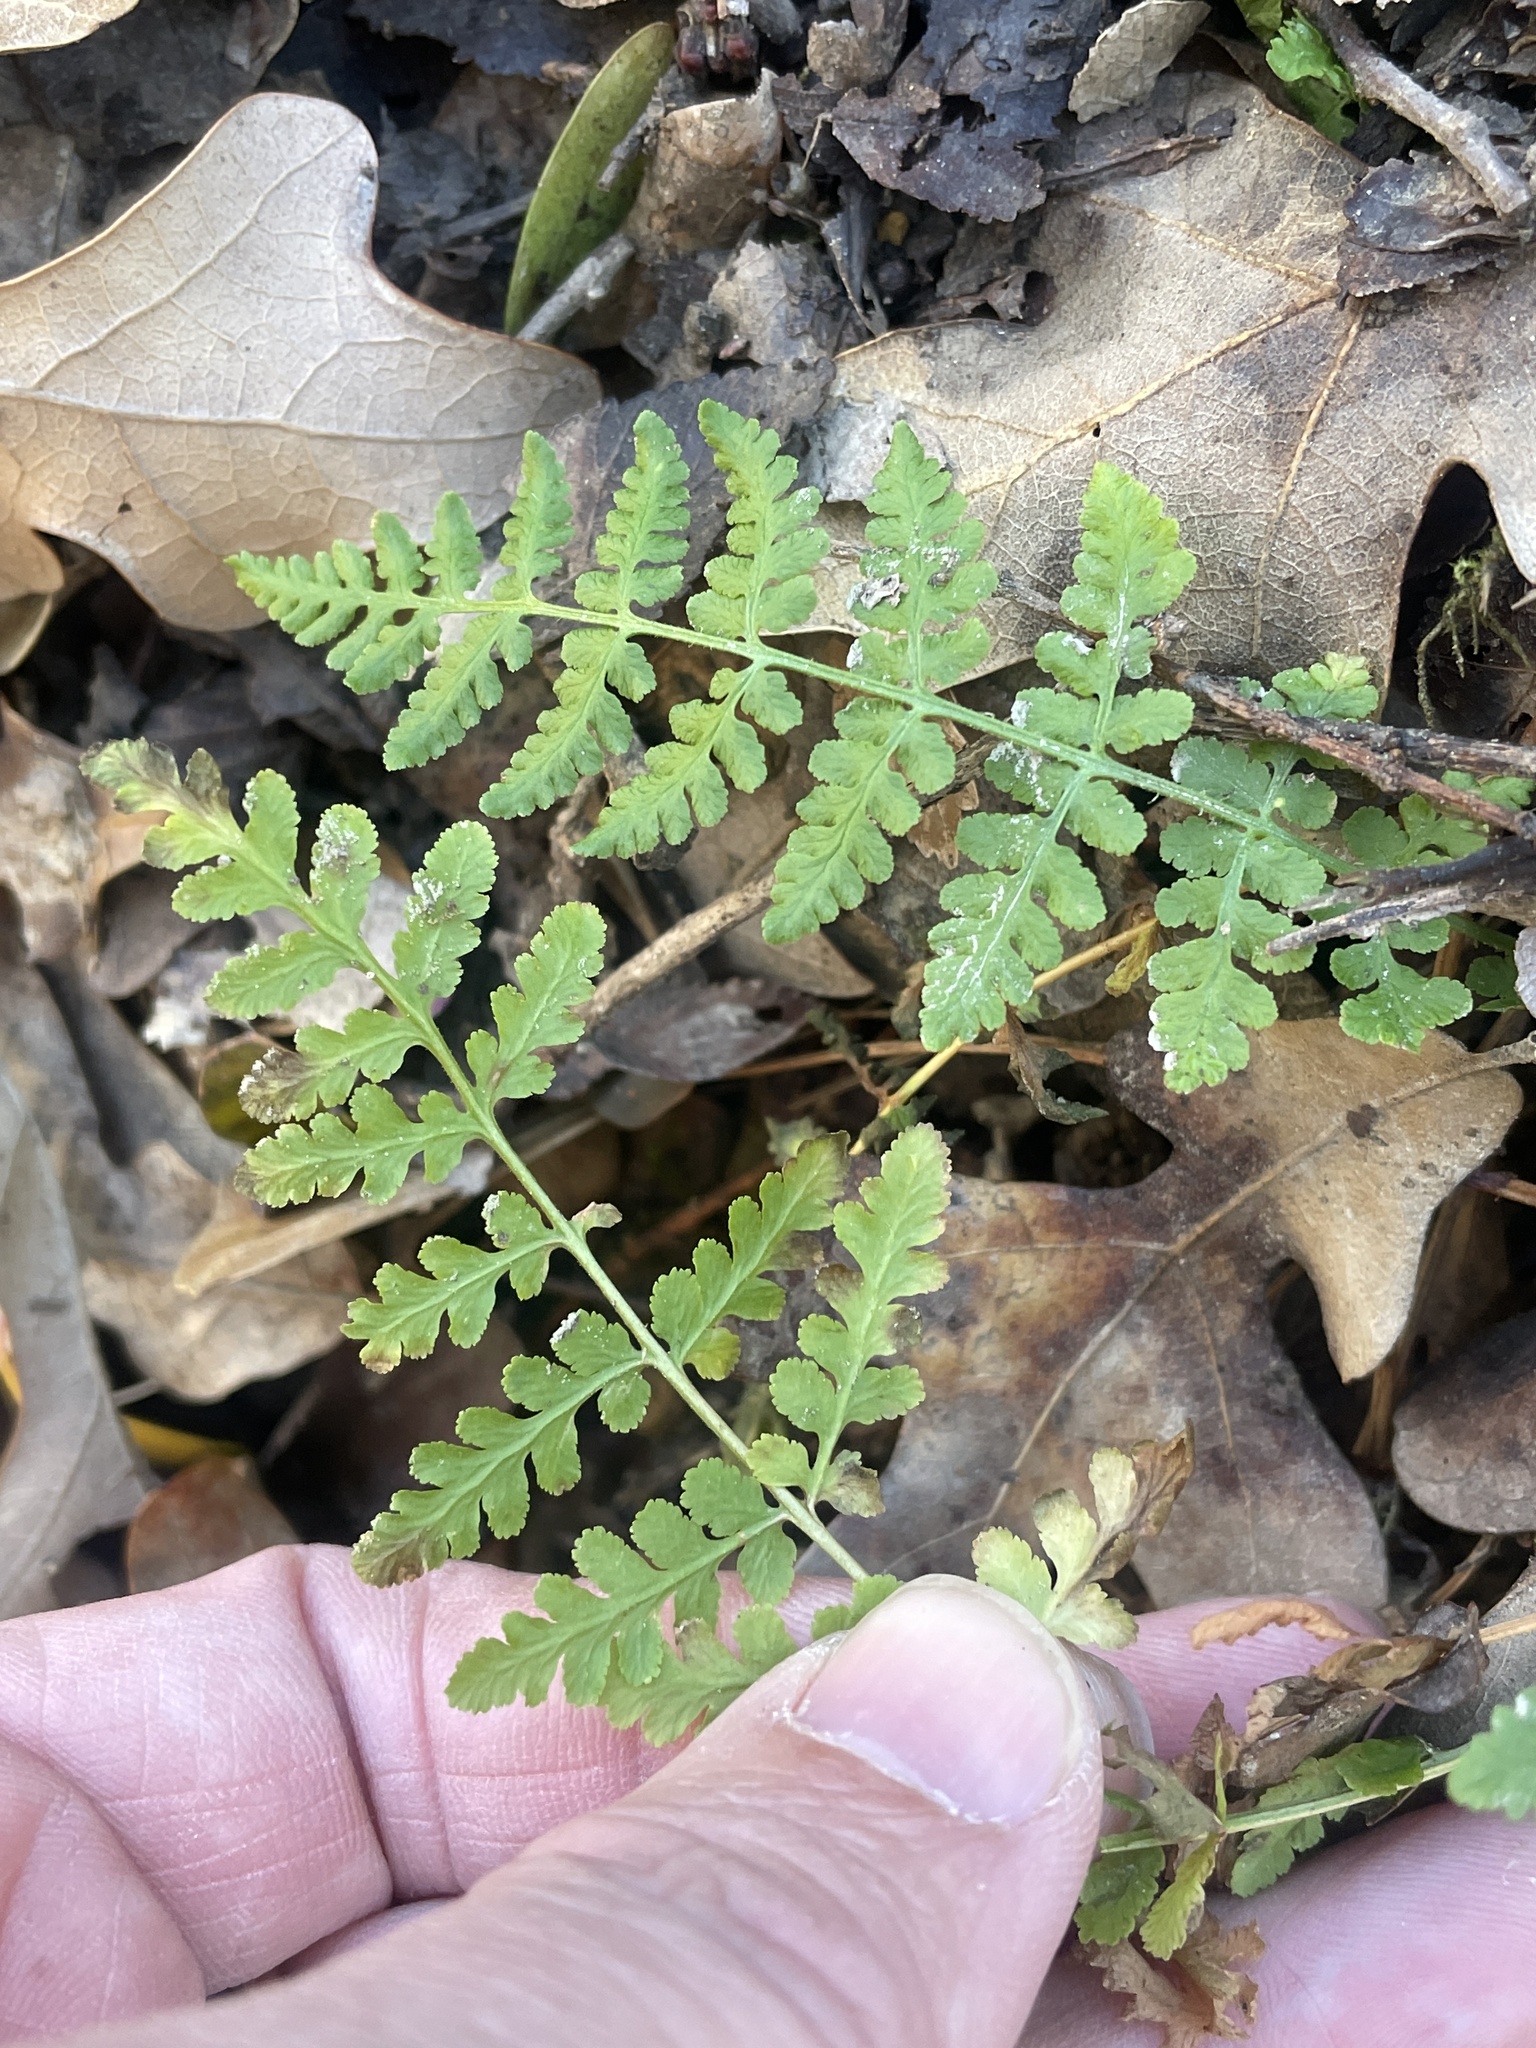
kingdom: Plantae
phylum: Tracheophyta
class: Polypodiopsida
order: Polypodiales
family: Woodsiaceae
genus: Physematium
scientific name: Physematium obtusum
